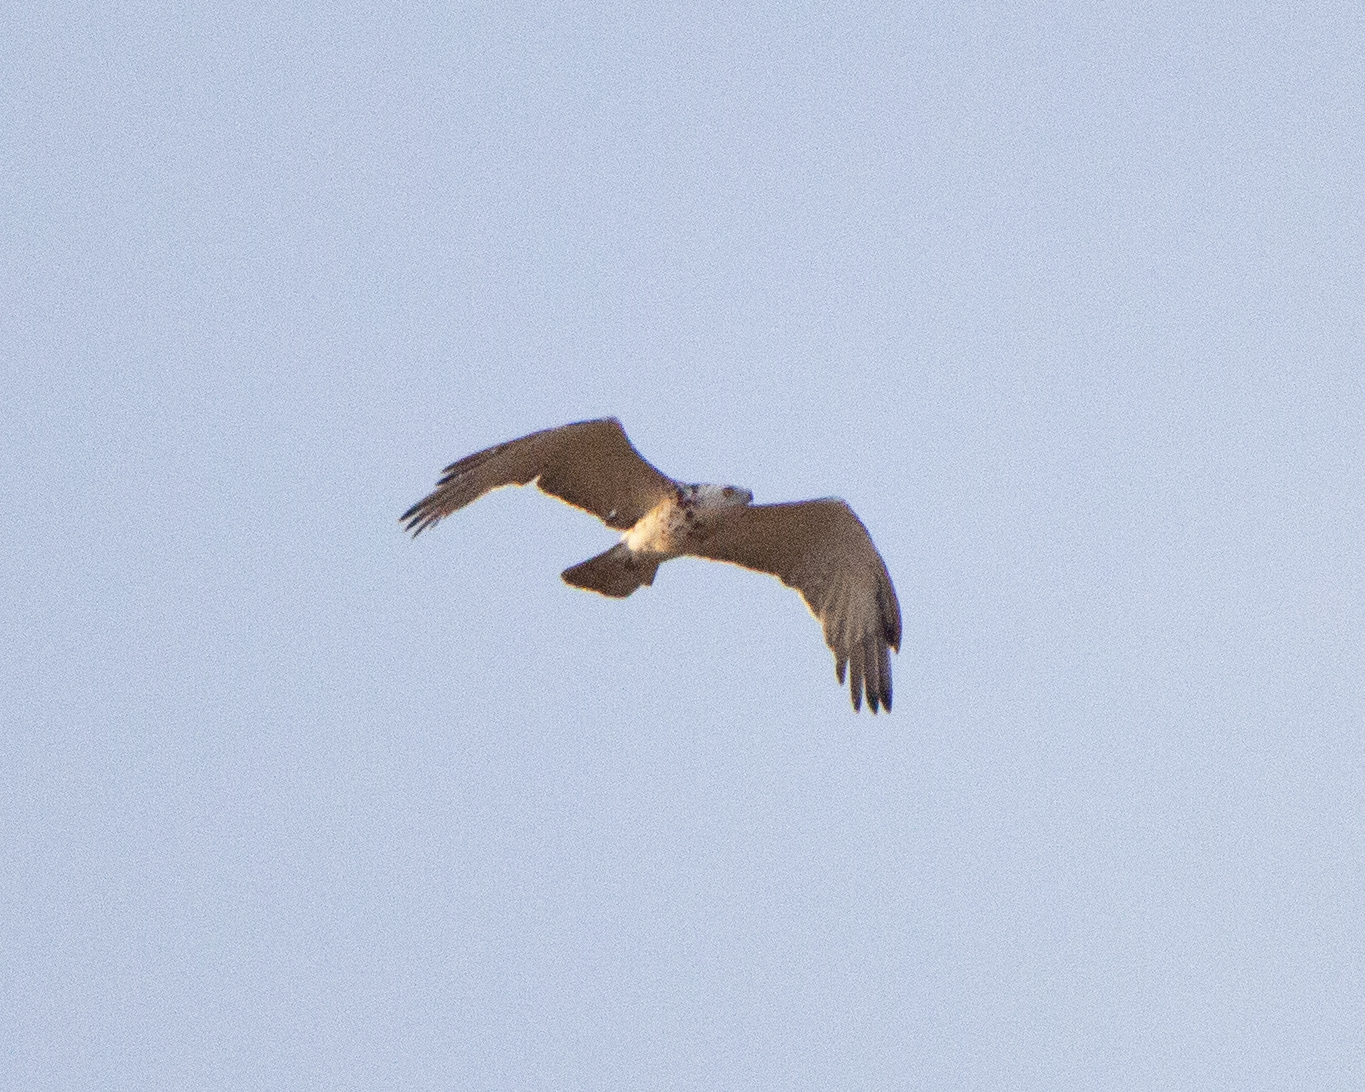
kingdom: Animalia
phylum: Chordata
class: Aves
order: Accipitriformes
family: Accipitridae
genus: Circaetus
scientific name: Circaetus gallicus
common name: Short-toed snake eagle
